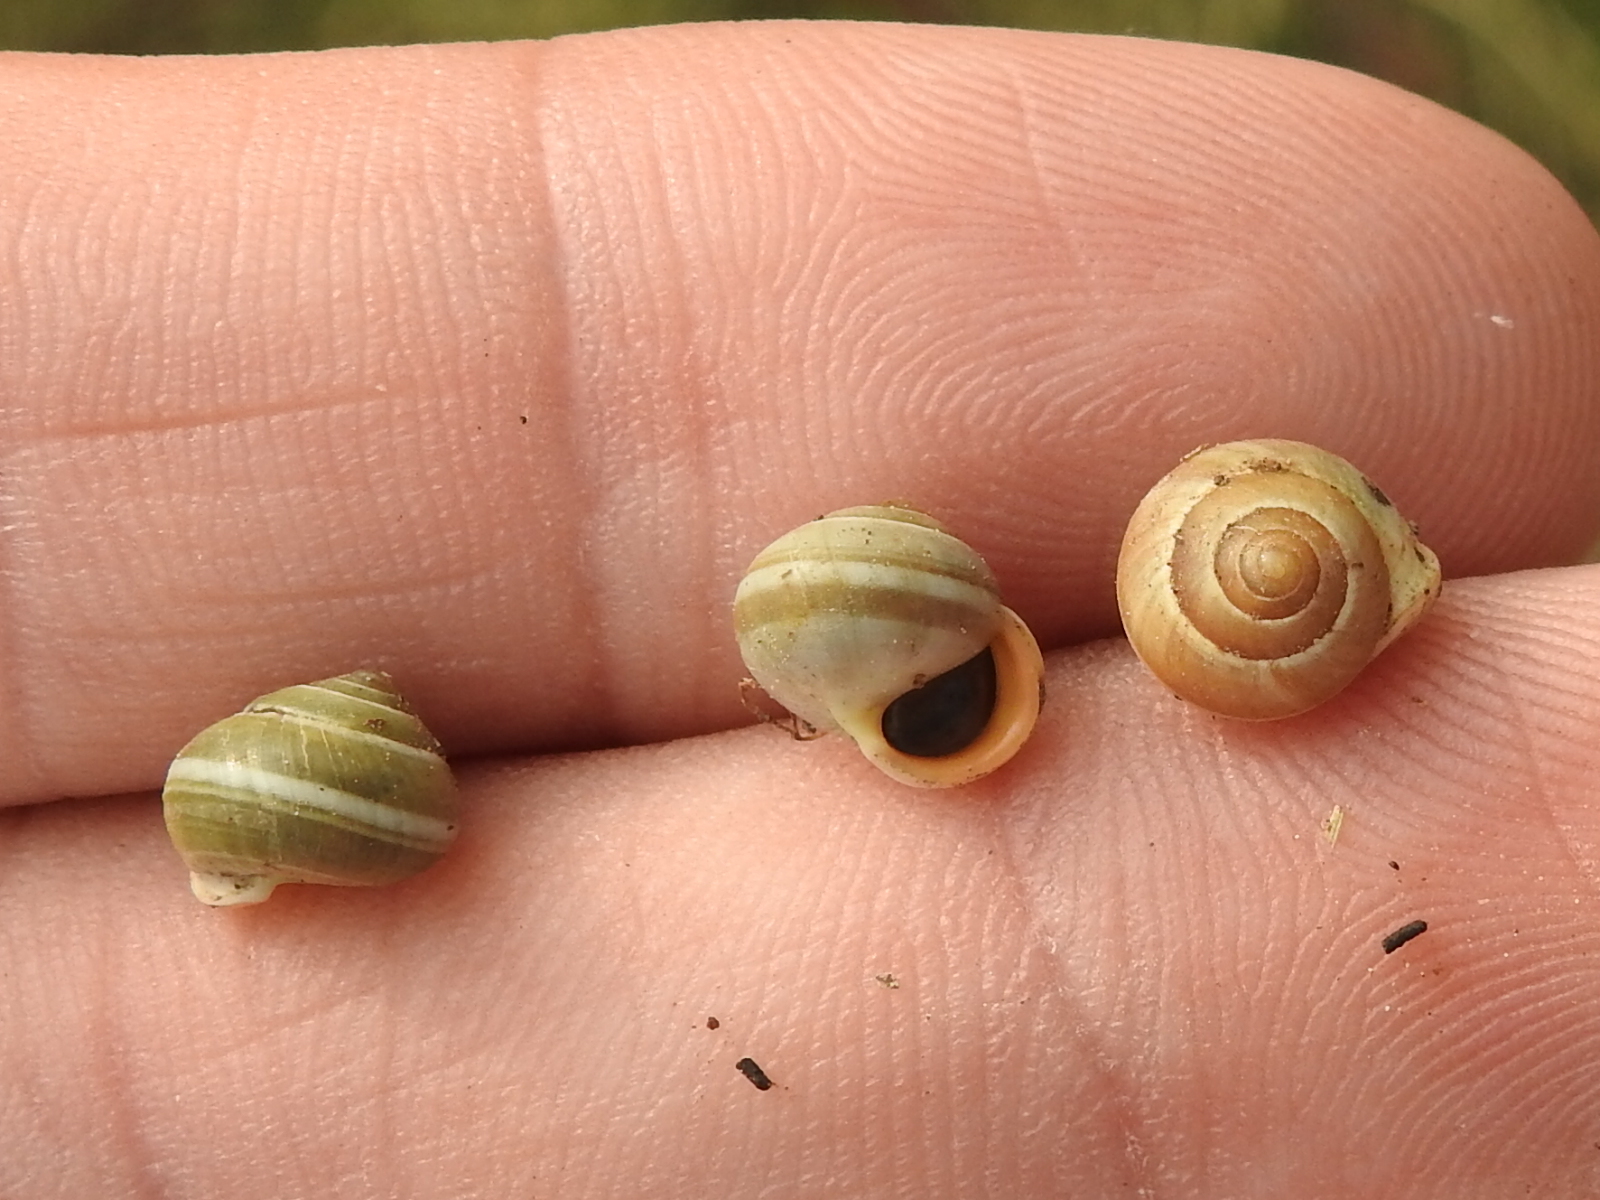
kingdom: Animalia
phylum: Mollusca
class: Gastropoda
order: Cycloneritida
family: Helicinidae
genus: Helicina
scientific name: Helicina orbiculata
